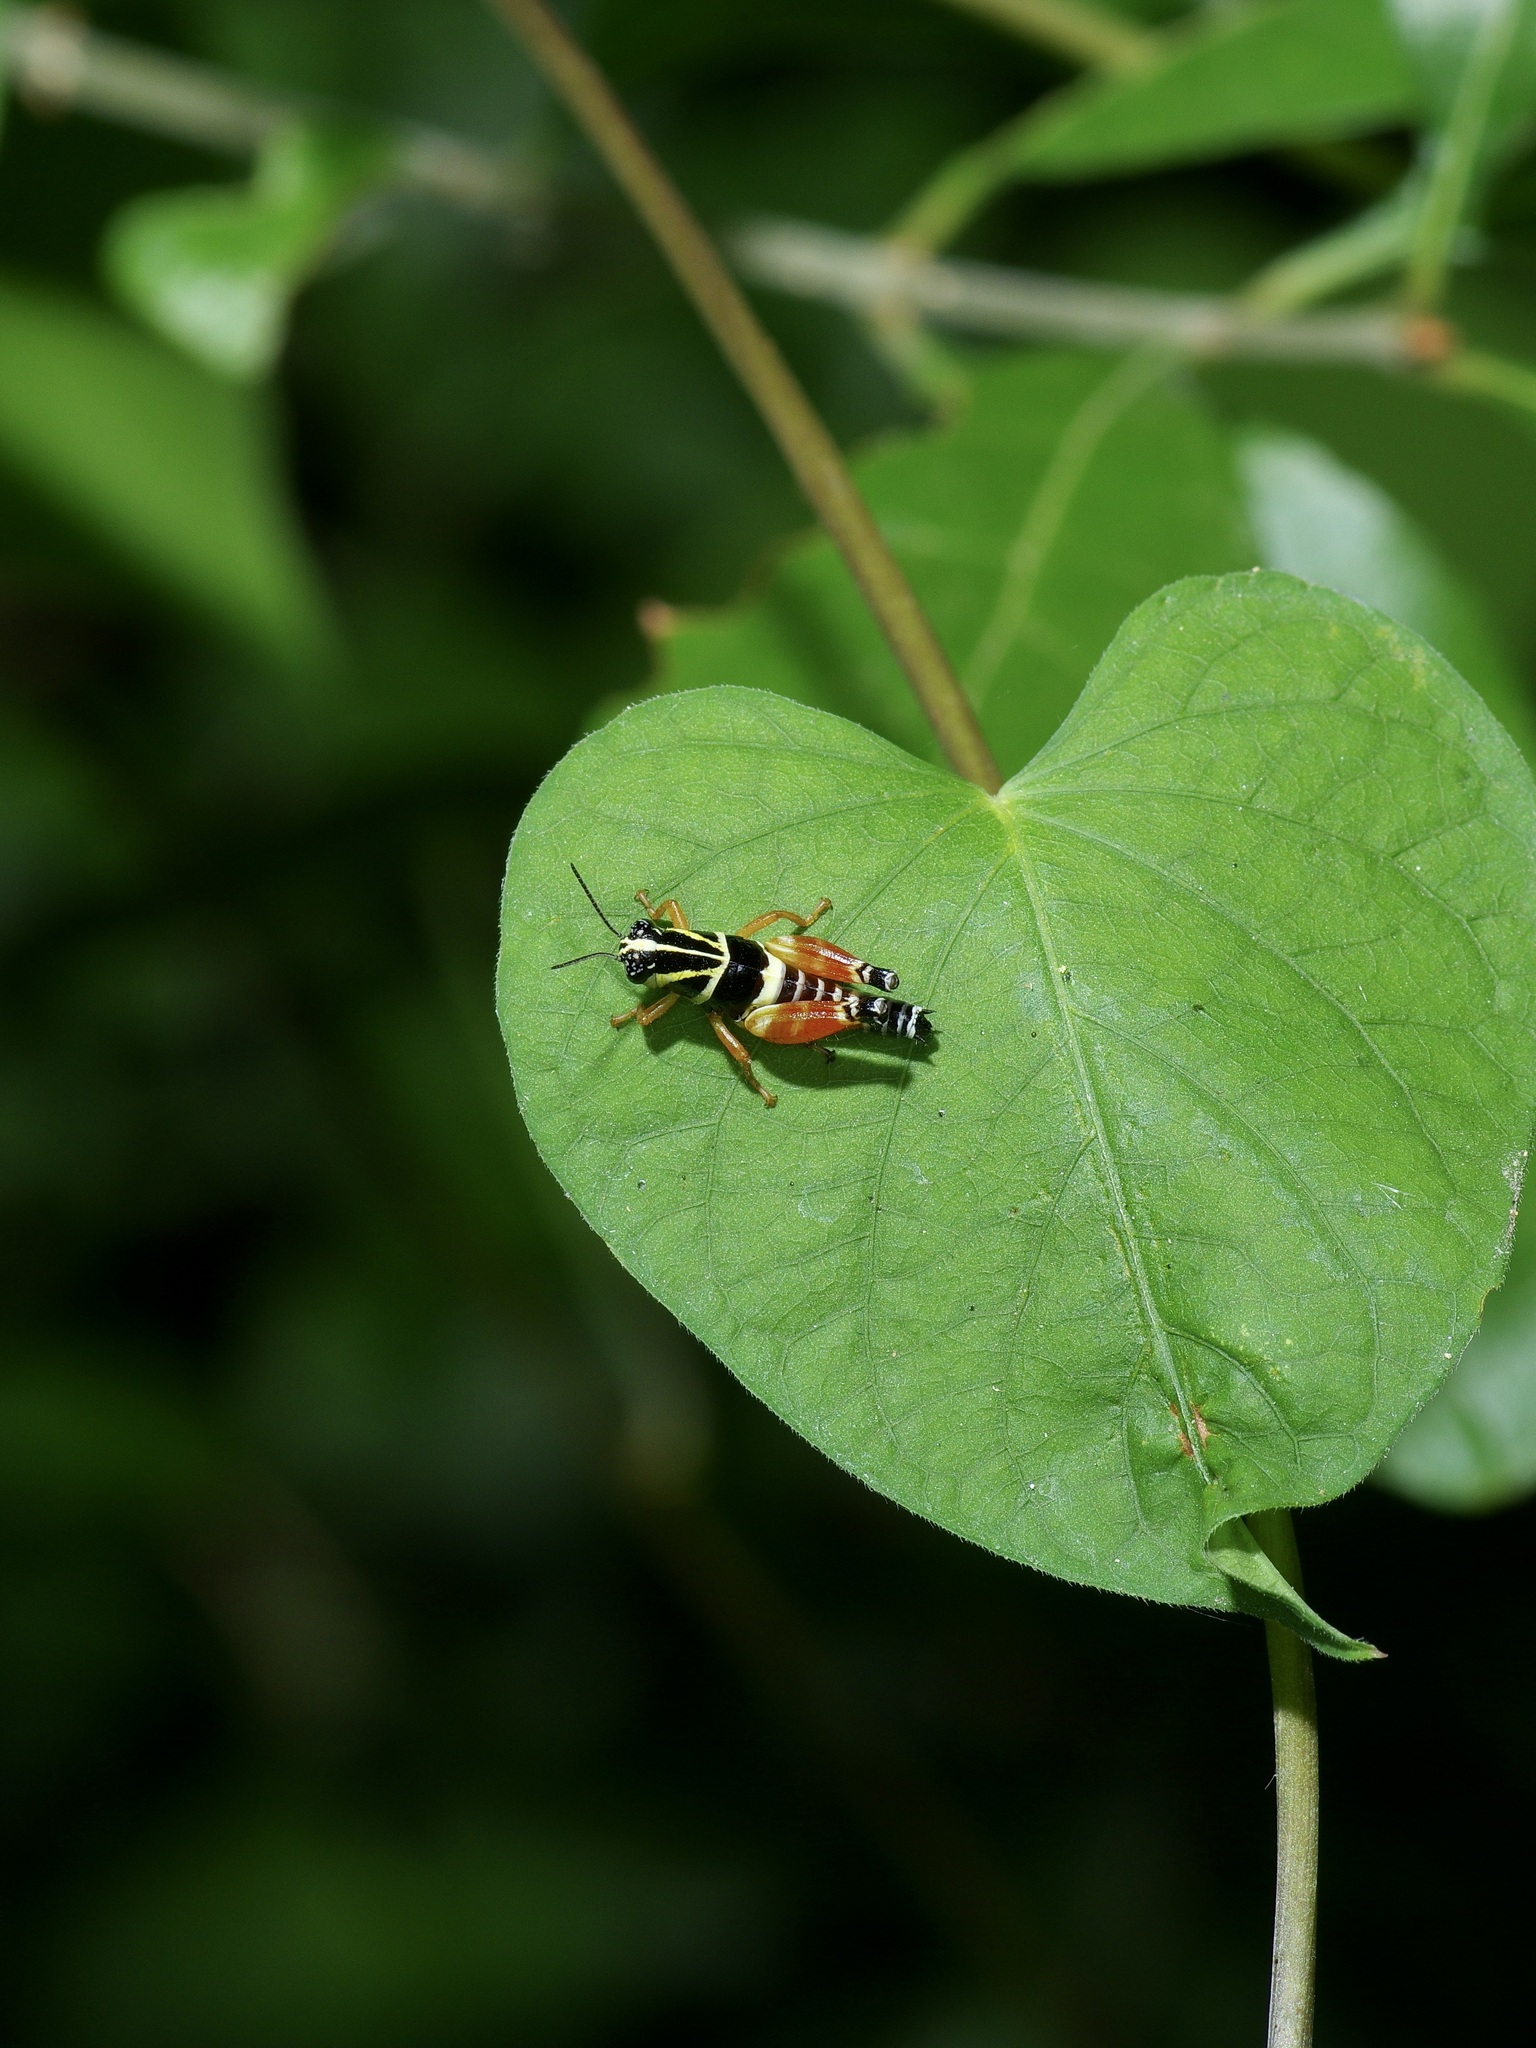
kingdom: Animalia
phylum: Arthropoda
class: Insecta
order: Orthoptera
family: Acrididae
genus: Aidemona
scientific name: Aidemona azteca
